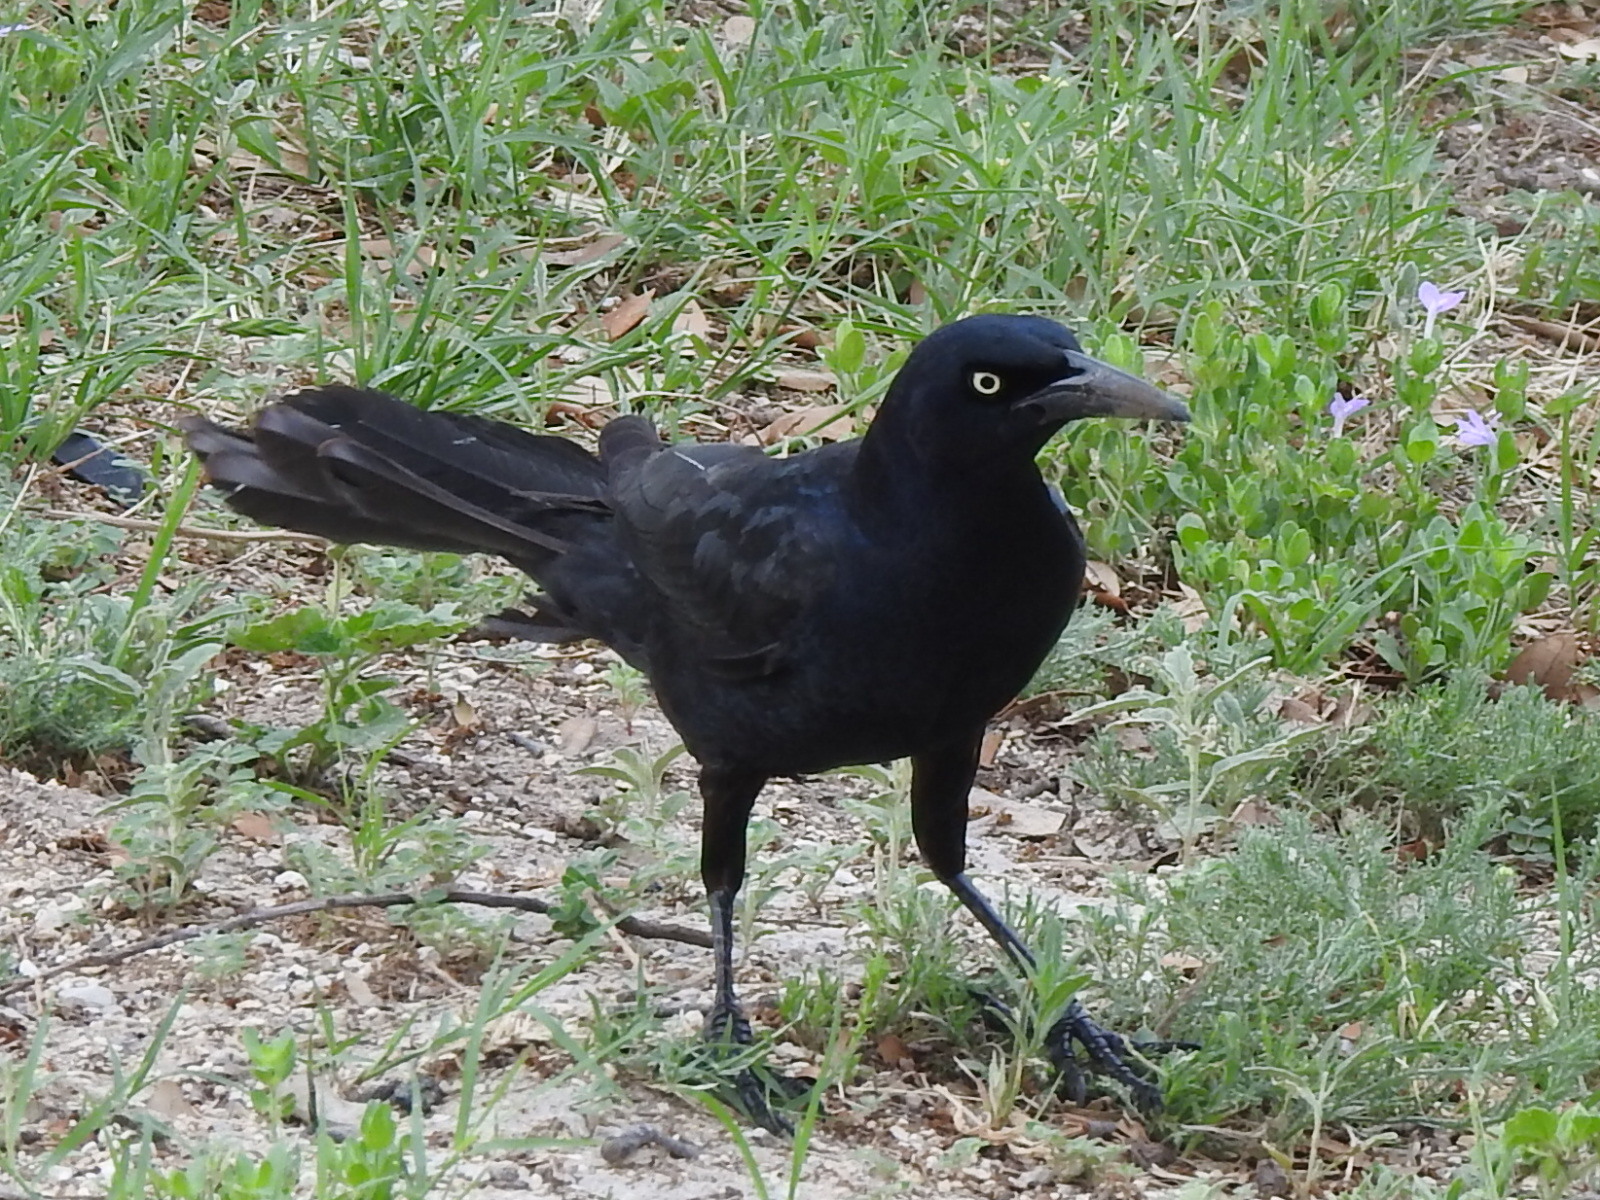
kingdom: Animalia
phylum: Chordata
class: Aves
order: Passeriformes
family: Icteridae
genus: Quiscalus
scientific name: Quiscalus mexicanus
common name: Great-tailed grackle
